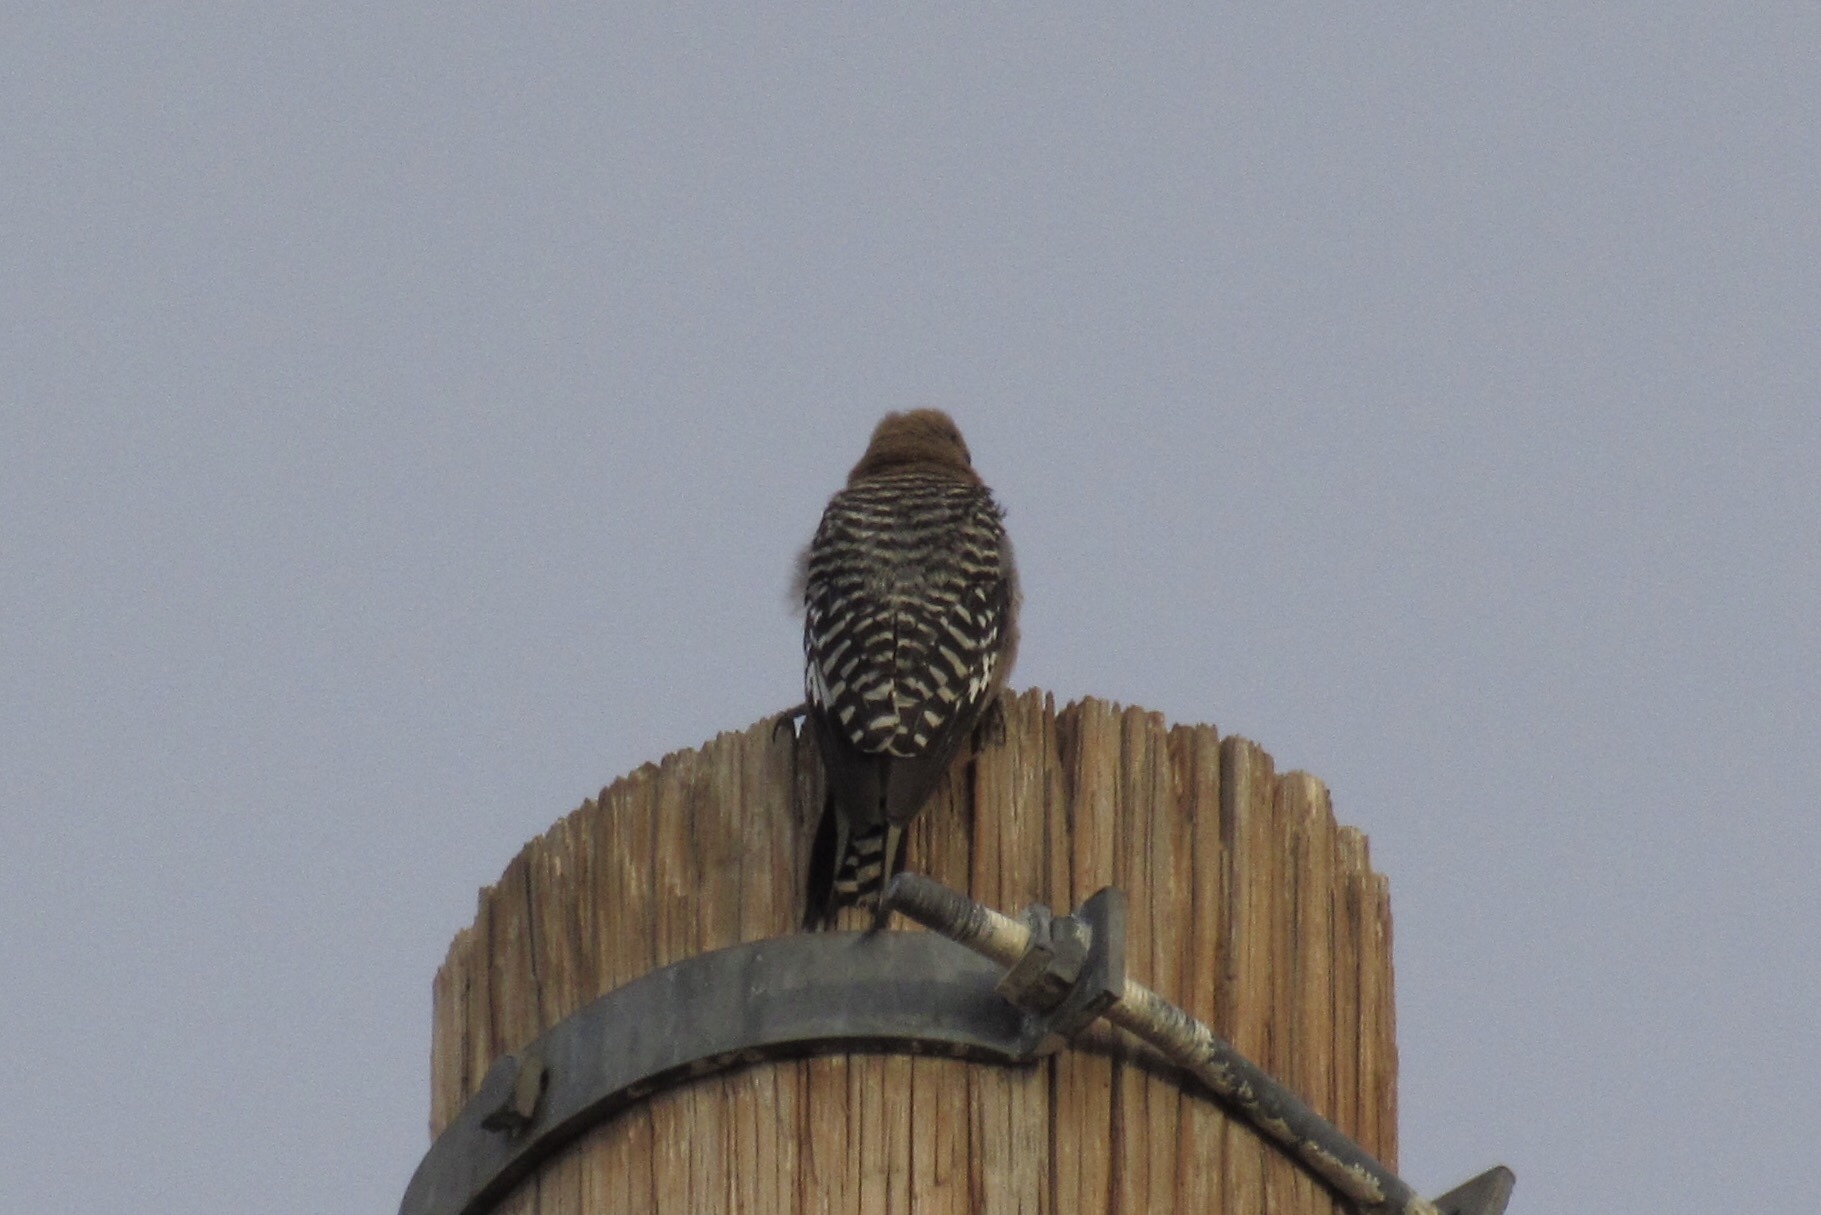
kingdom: Animalia
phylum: Chordata
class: Aves
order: Piciformes
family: Picidae
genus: Melanerpes
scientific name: Melanerpes uropygialis
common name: Gila woodpecker
